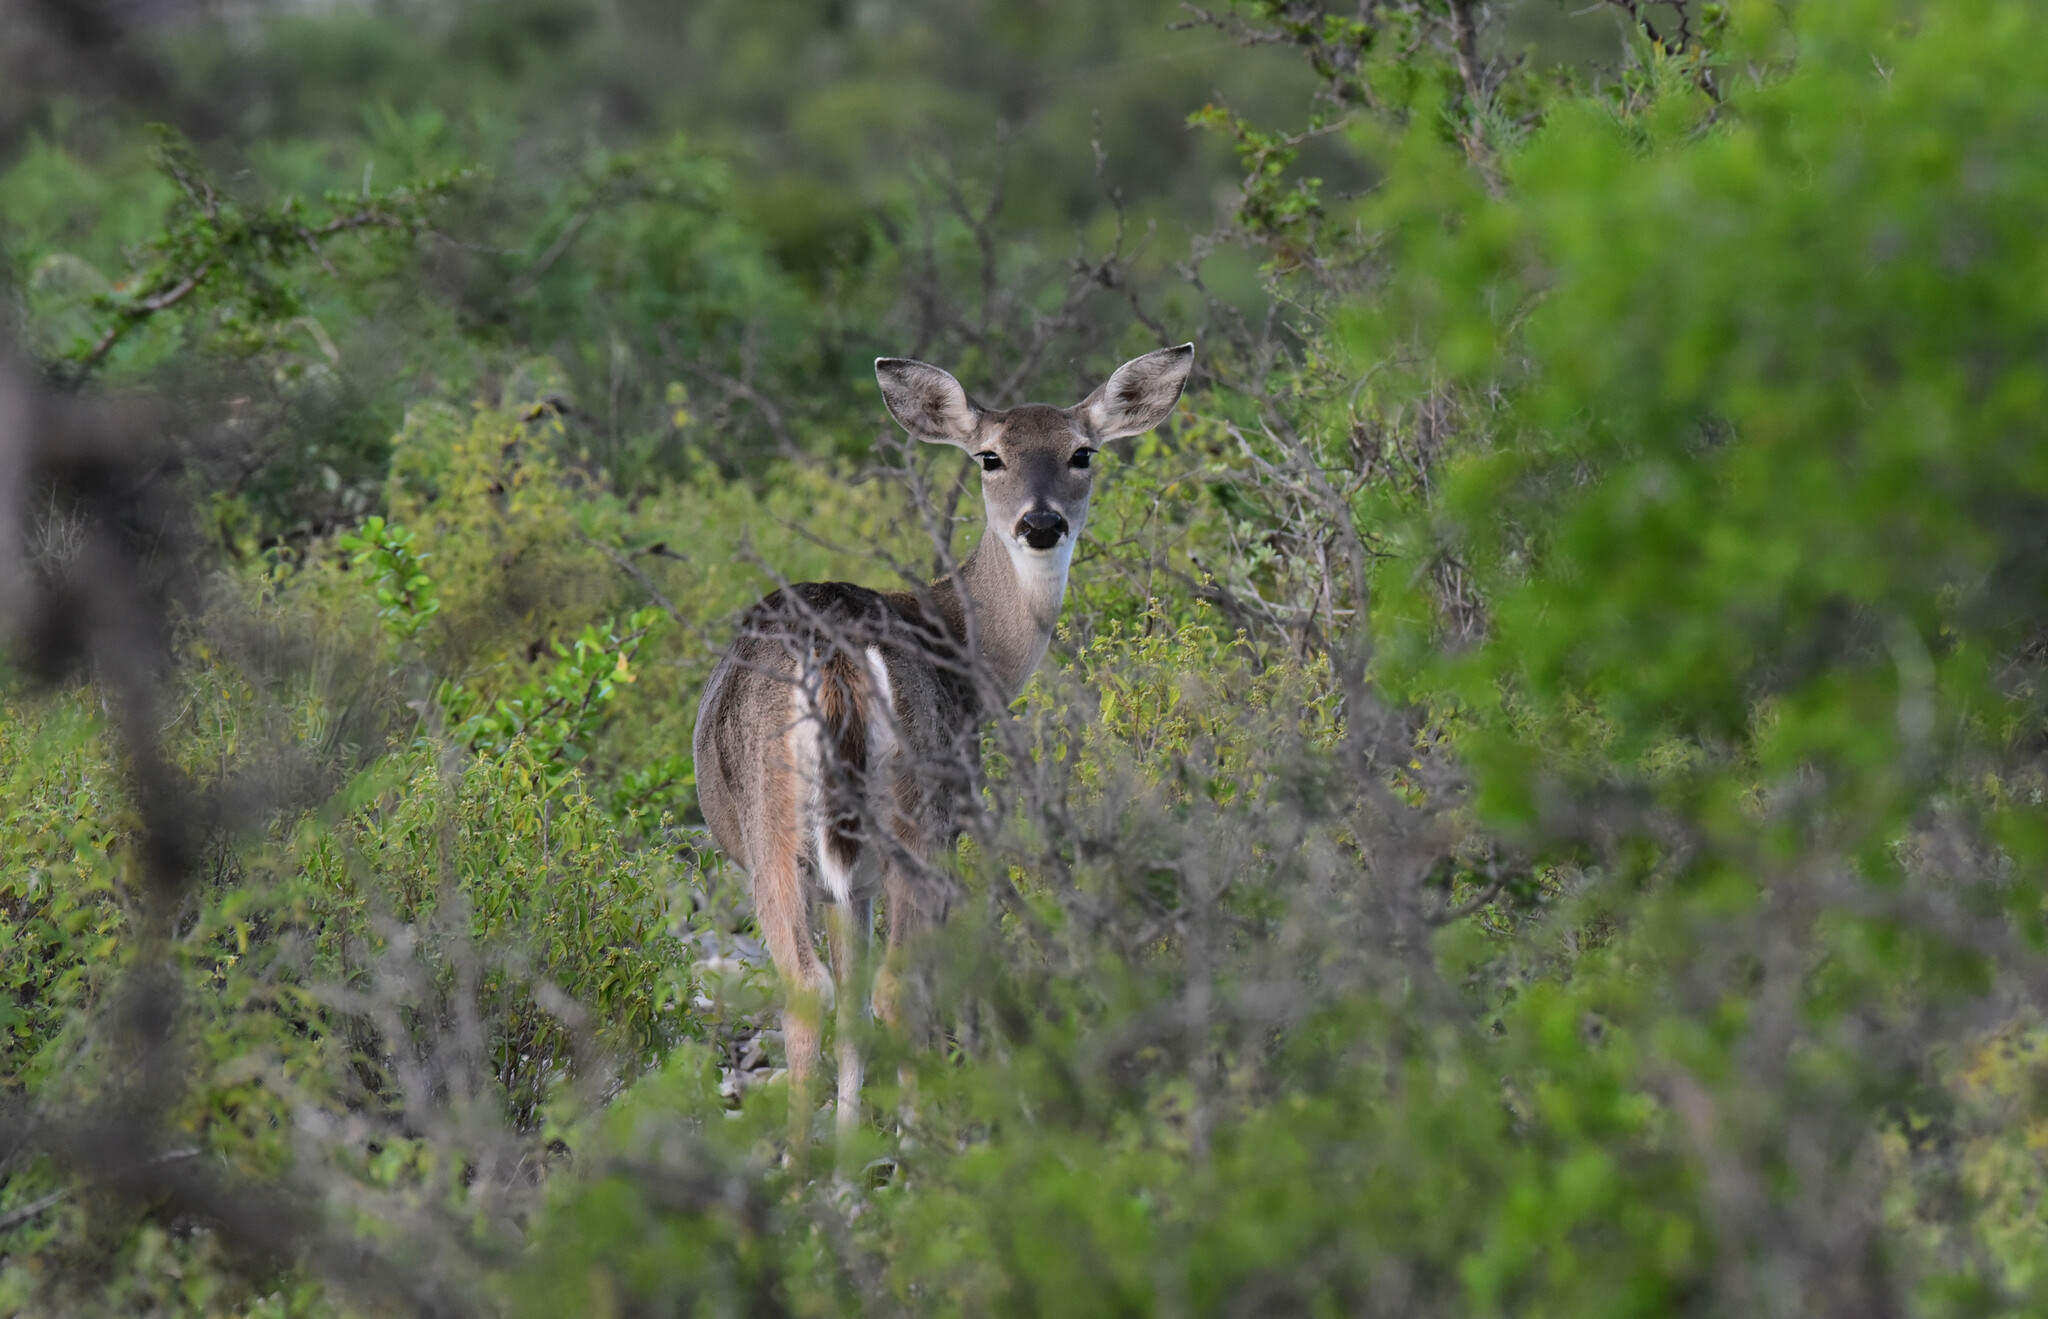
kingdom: Animalia
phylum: Chordata
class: Mammalia
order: Artiodactyla
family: Cervidae
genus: Odocoileus
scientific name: Odocoileus virginianus
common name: White-tailed deer
